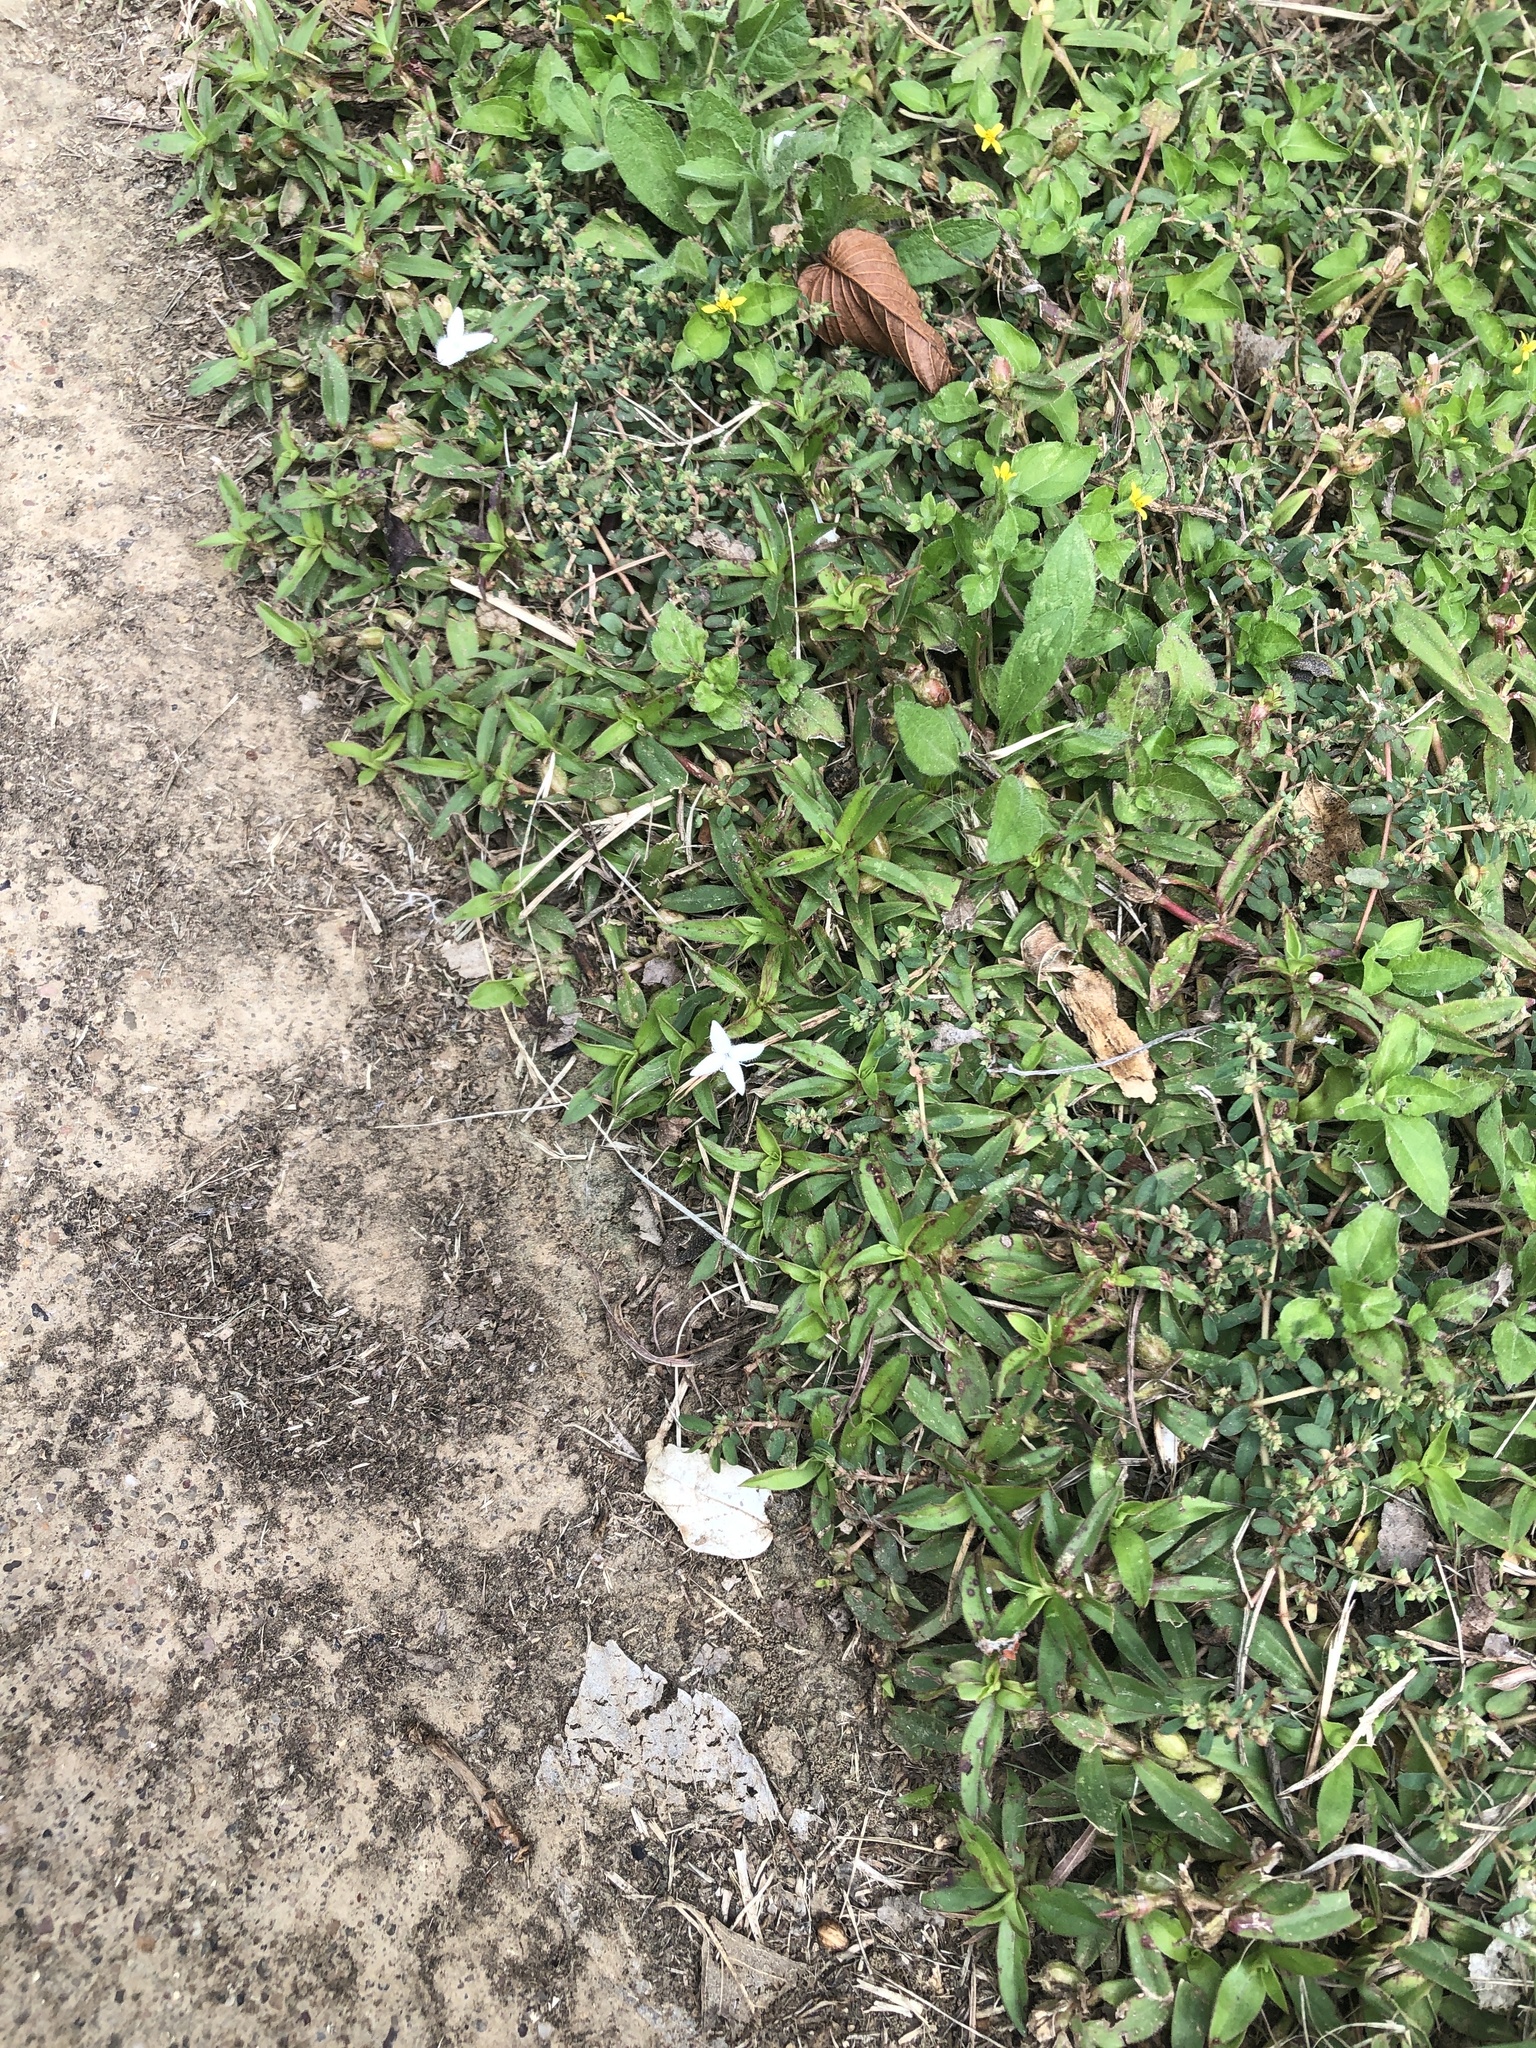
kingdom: Plantae
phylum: Tracheophyta
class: Magnoliopsida
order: Gentianales
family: Rubiaceae
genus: Diodia
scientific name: Diodia virginiana
